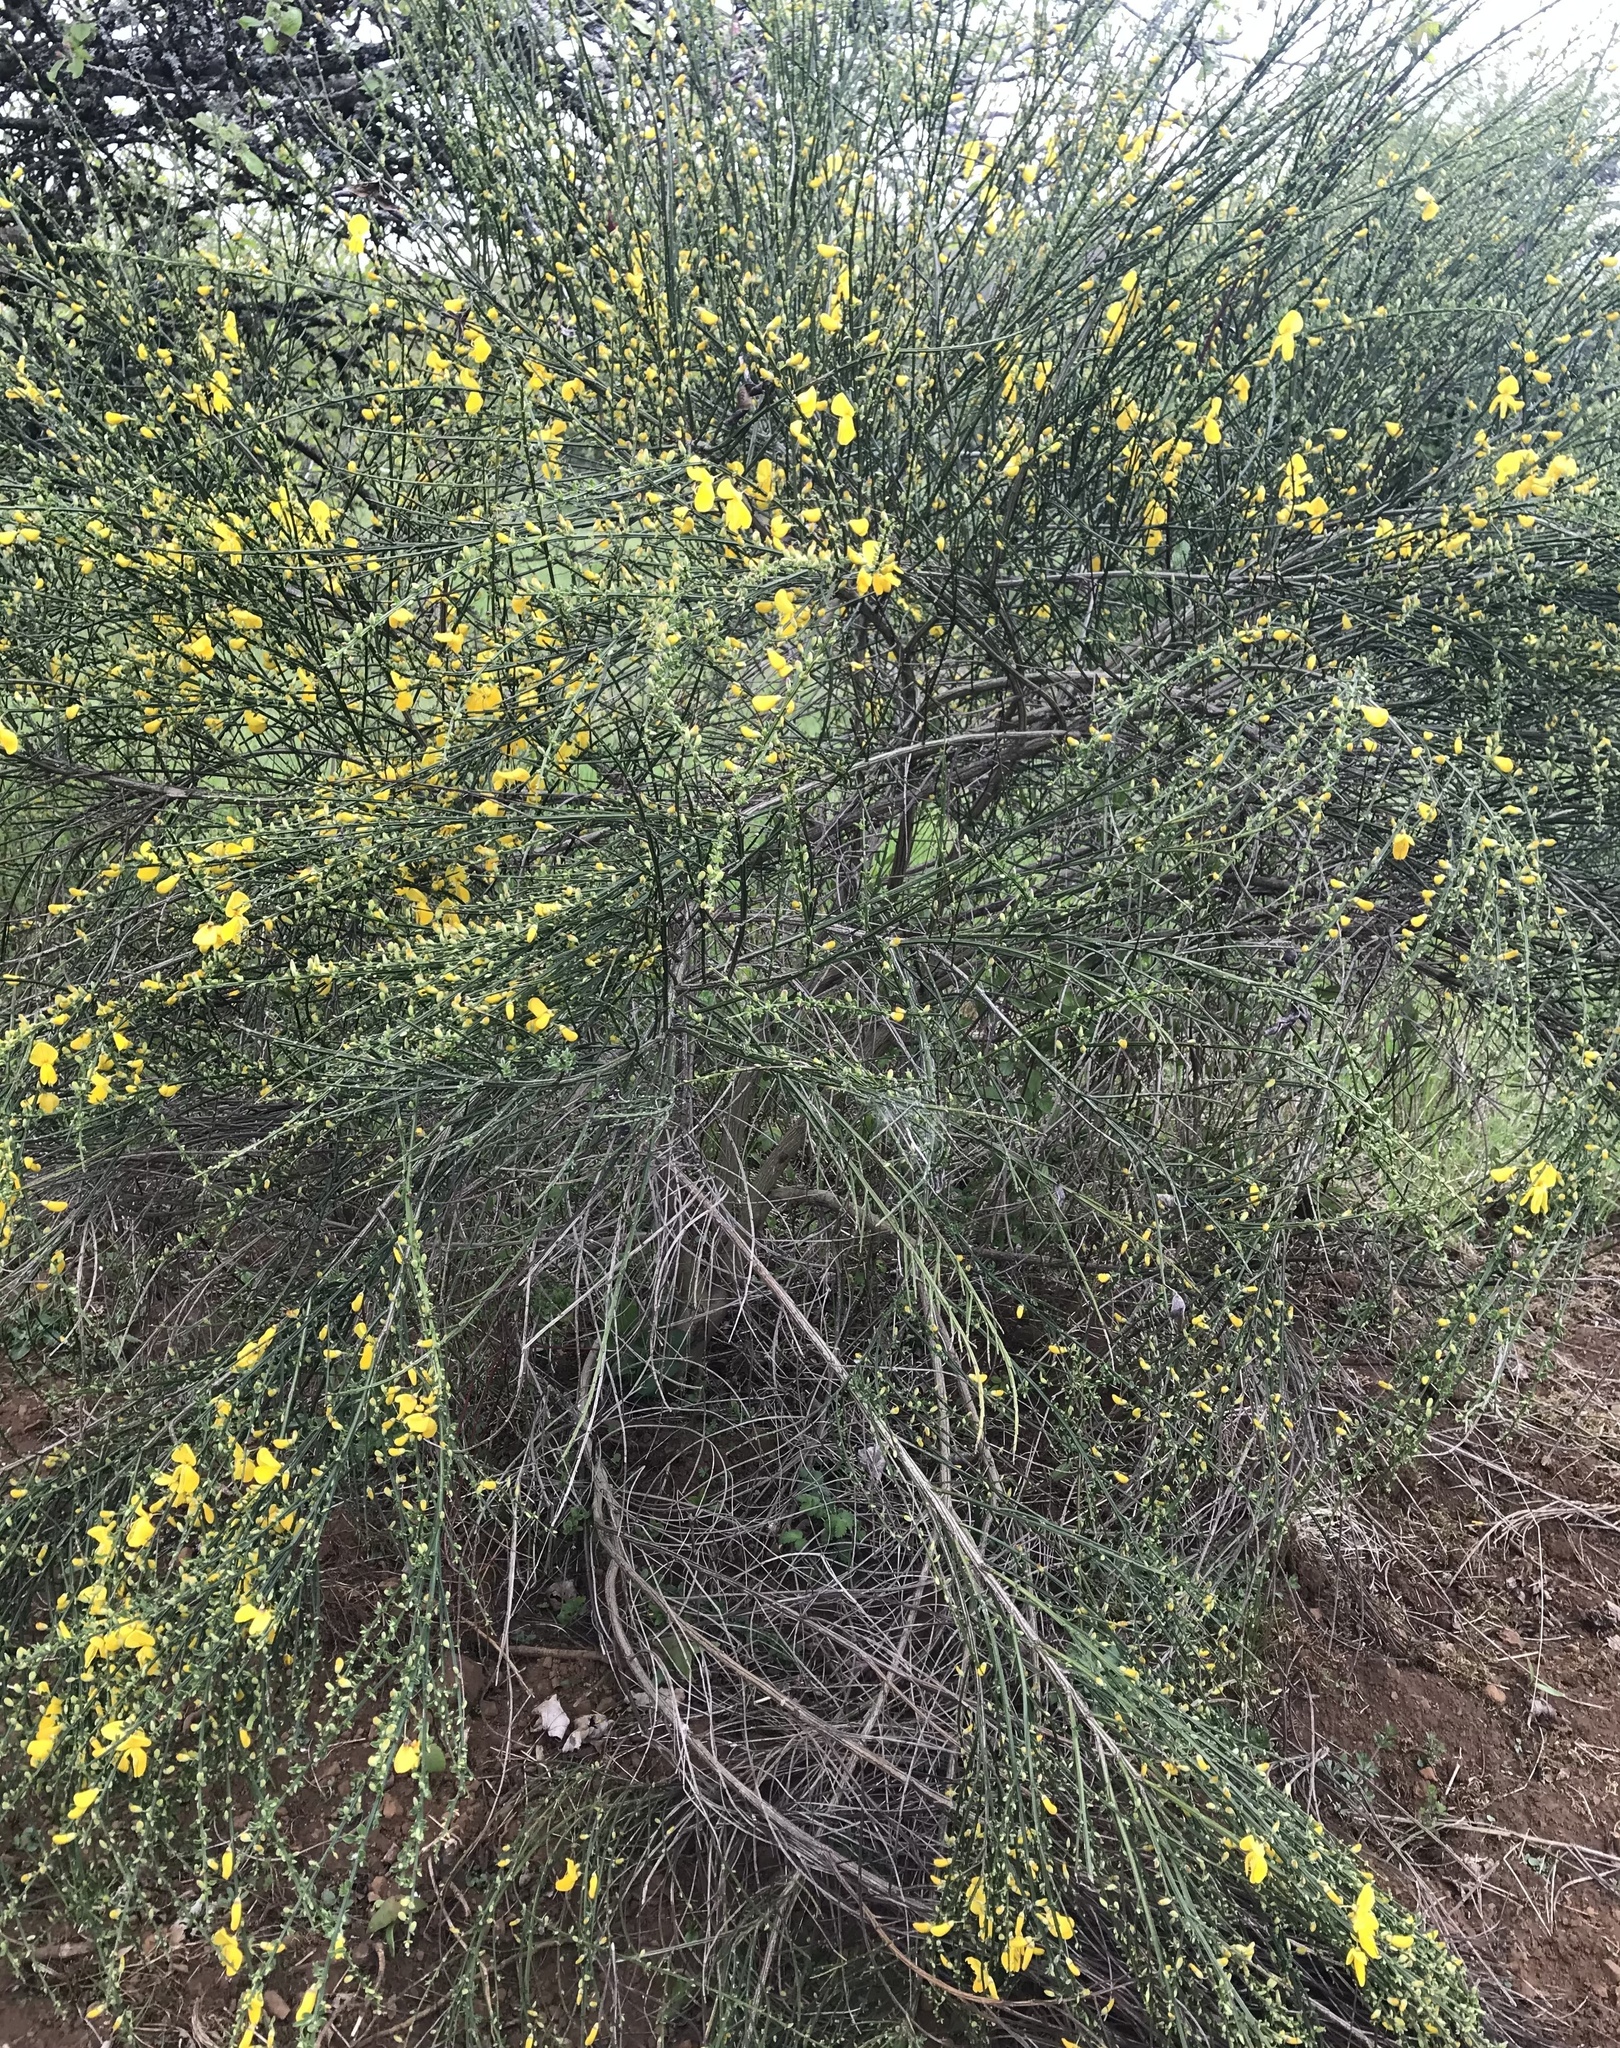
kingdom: Plantae
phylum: Tracheophyta
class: Magnoliopsida
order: Fabales
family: Fabaceae
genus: Cytisus
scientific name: Cytisus scoparius
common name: Scotch broom
